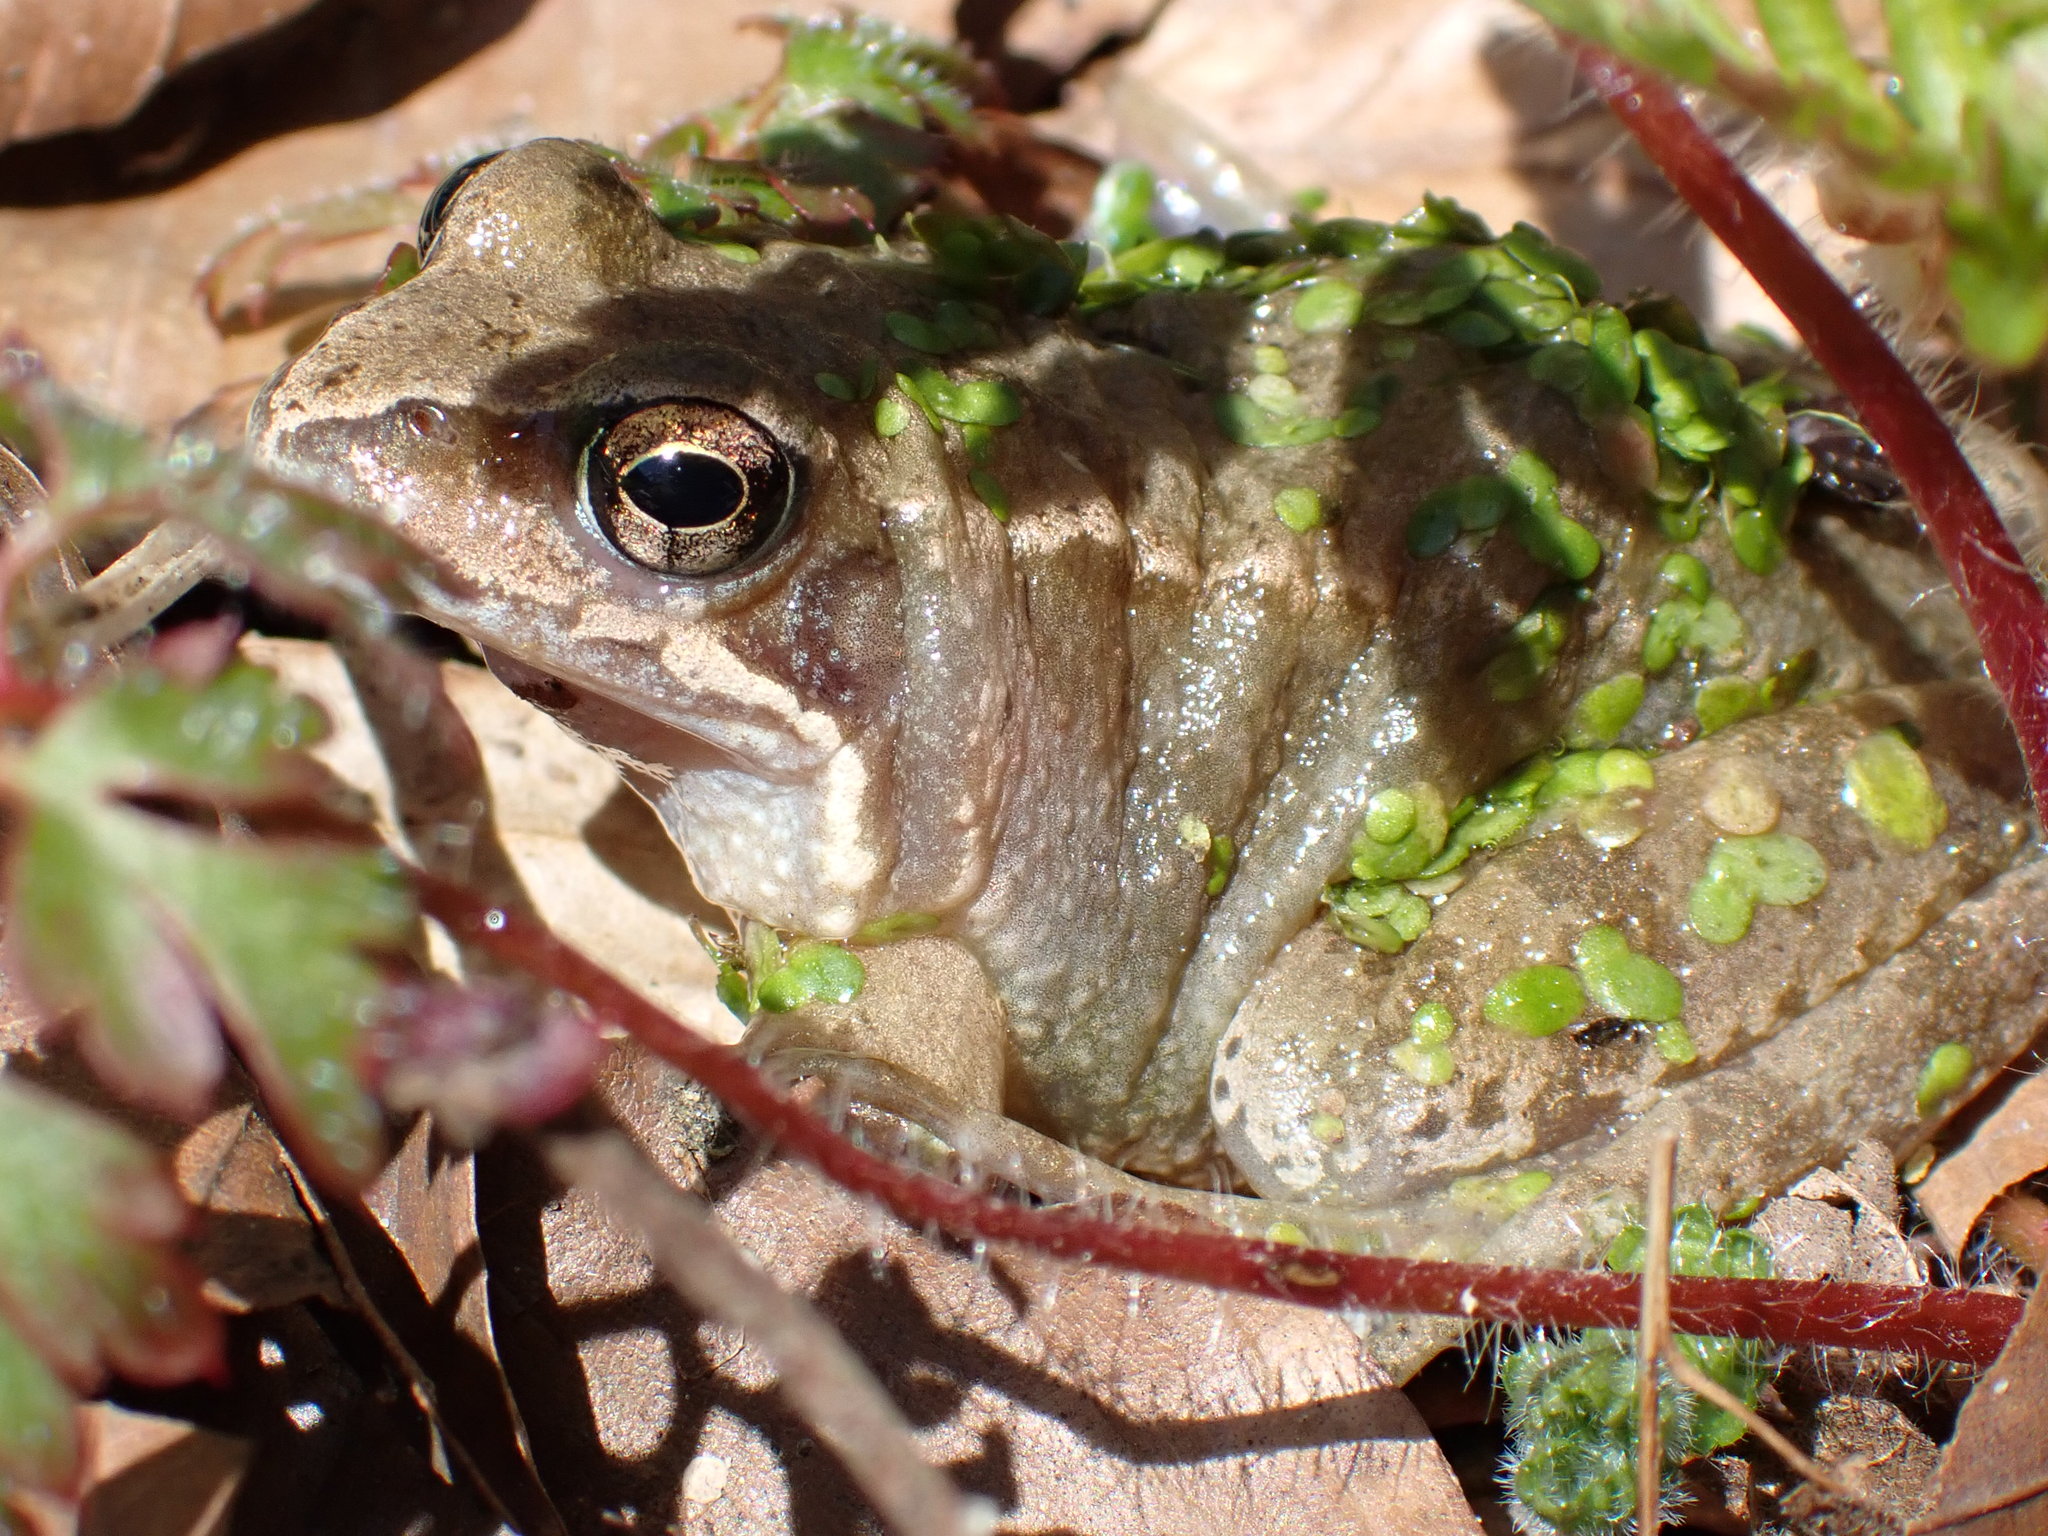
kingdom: Animalia
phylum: Chordata
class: Amphibia
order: Anura
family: Ranidae
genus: Rana
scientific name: Rana temporaria
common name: Common frog
